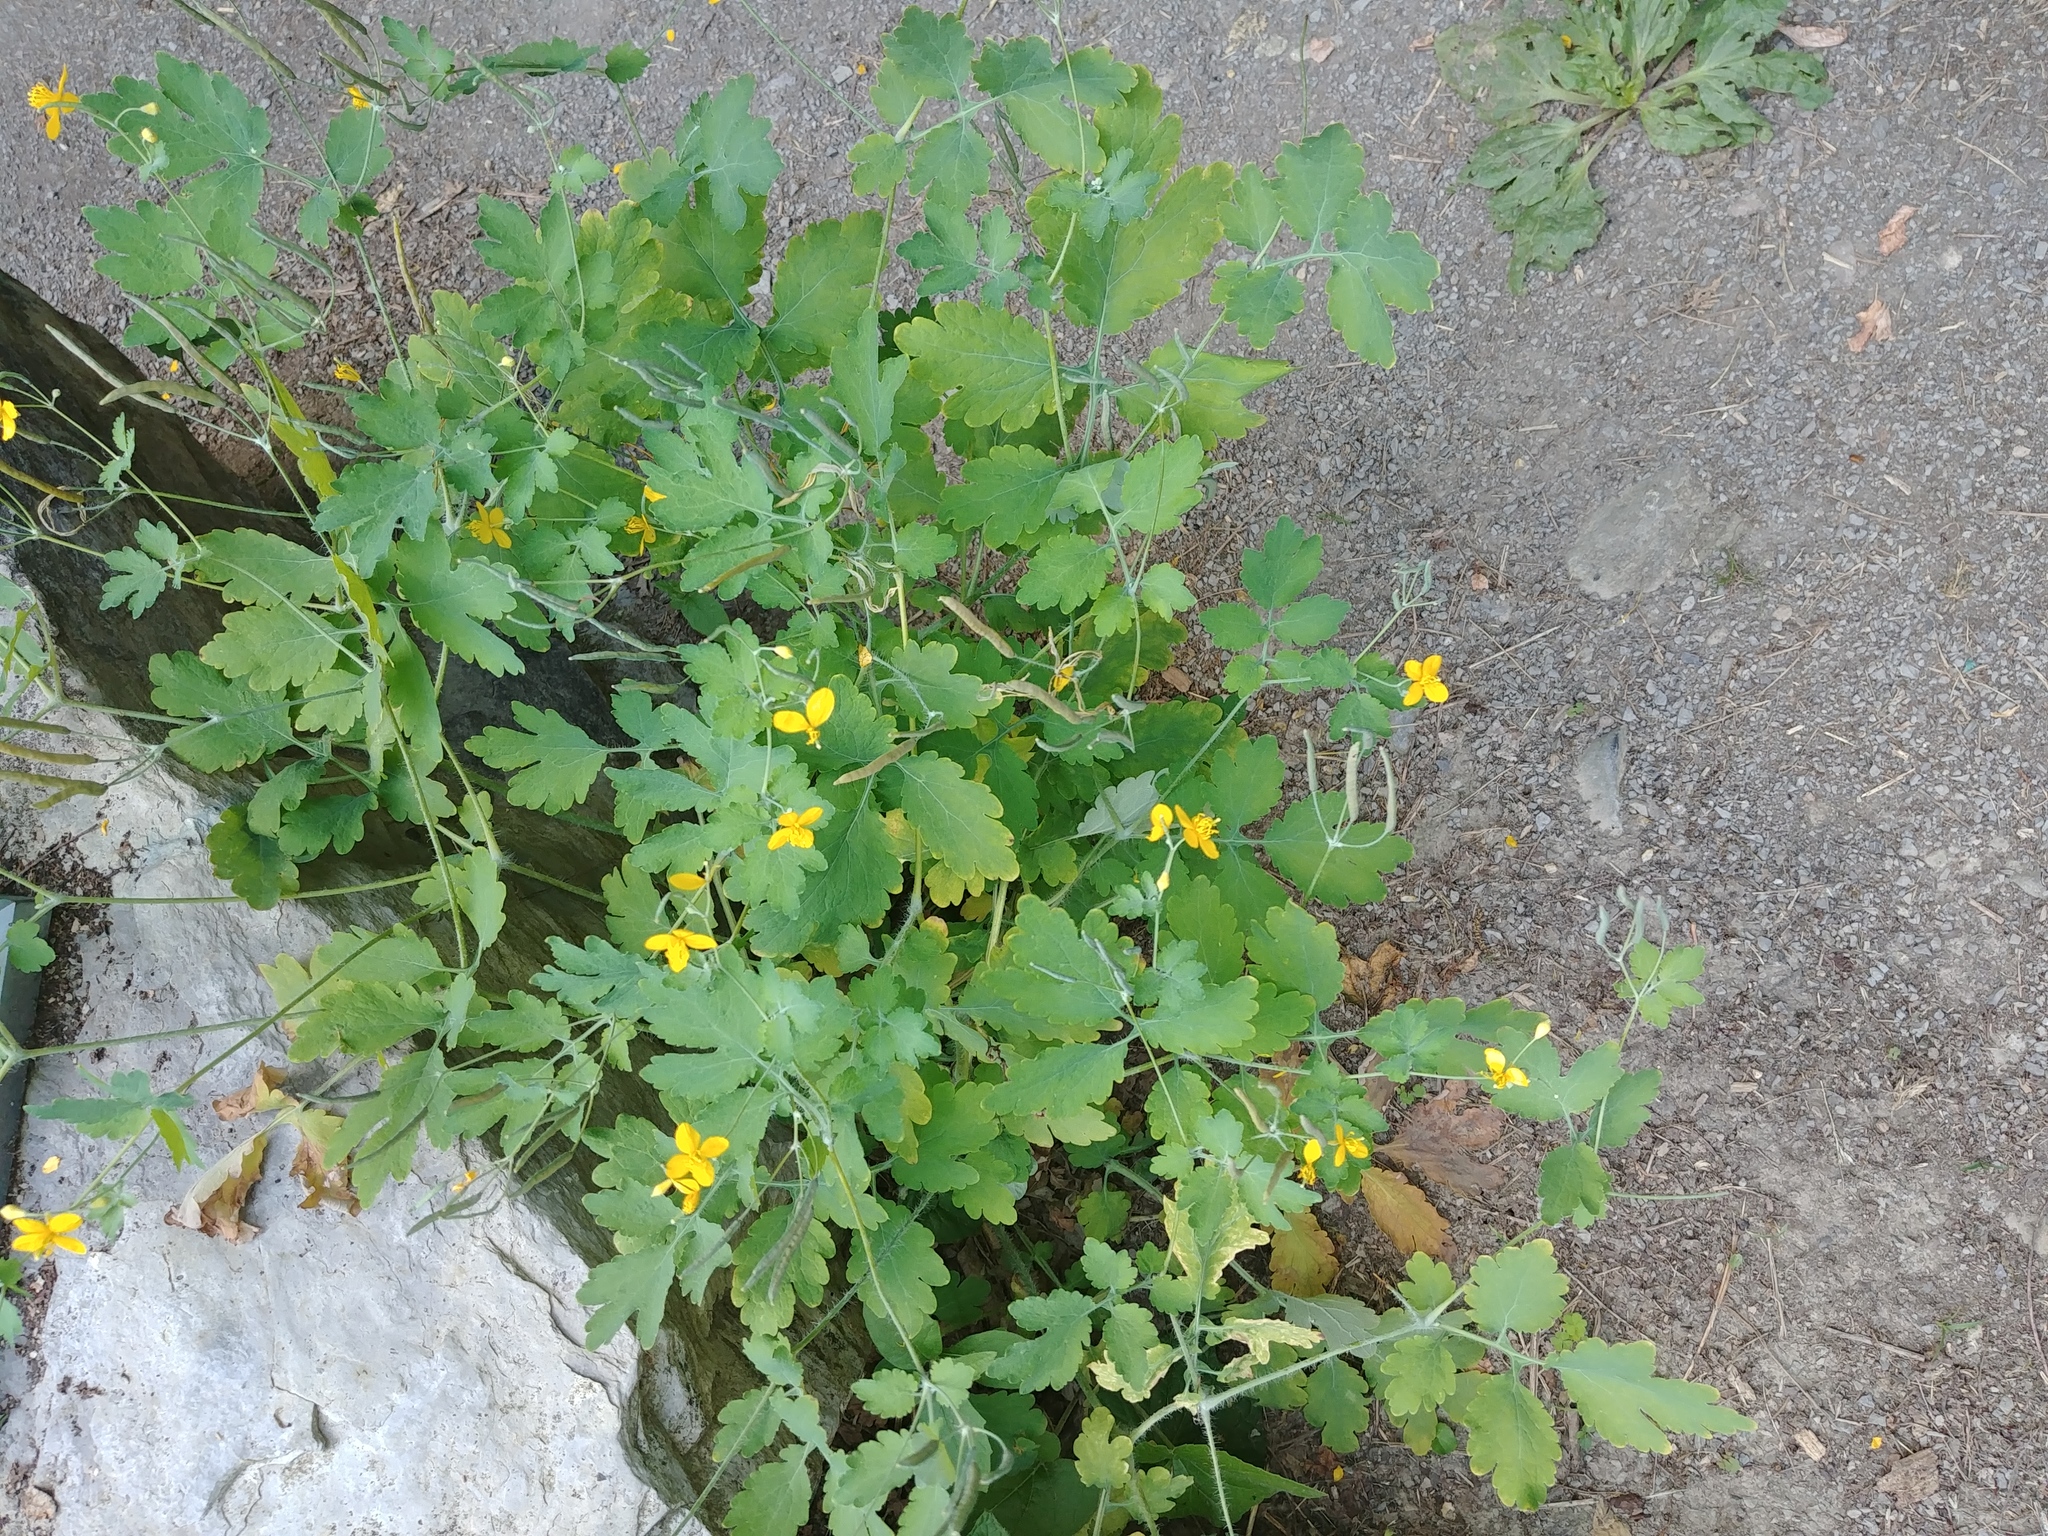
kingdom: Plantae
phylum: Tracheophyta
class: Magnoliopsida
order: Ranunculales
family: Papaveraceae
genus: Chelidonium
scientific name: Chelidonium majus
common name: Greater celandine
